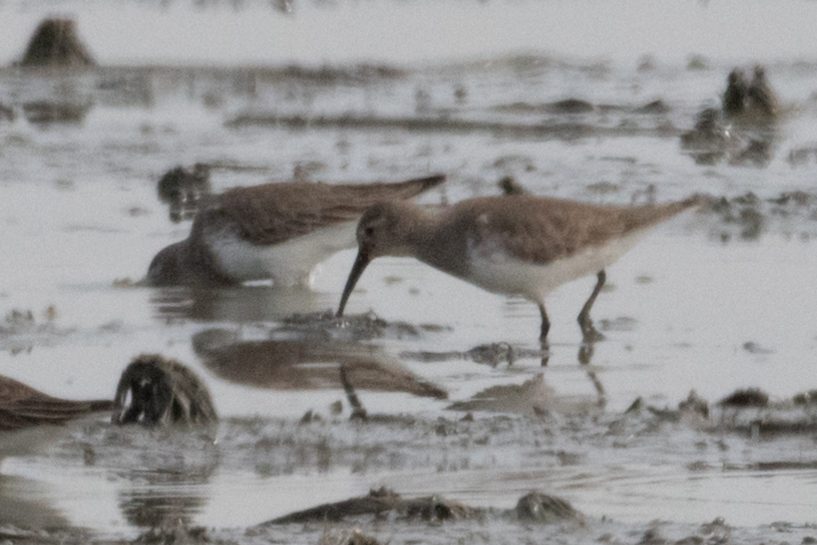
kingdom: Animalia
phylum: Chordata
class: Aves
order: Charadriiformes
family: Scolopacidae
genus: Calidris
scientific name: Calidris alpina
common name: Dunlin
